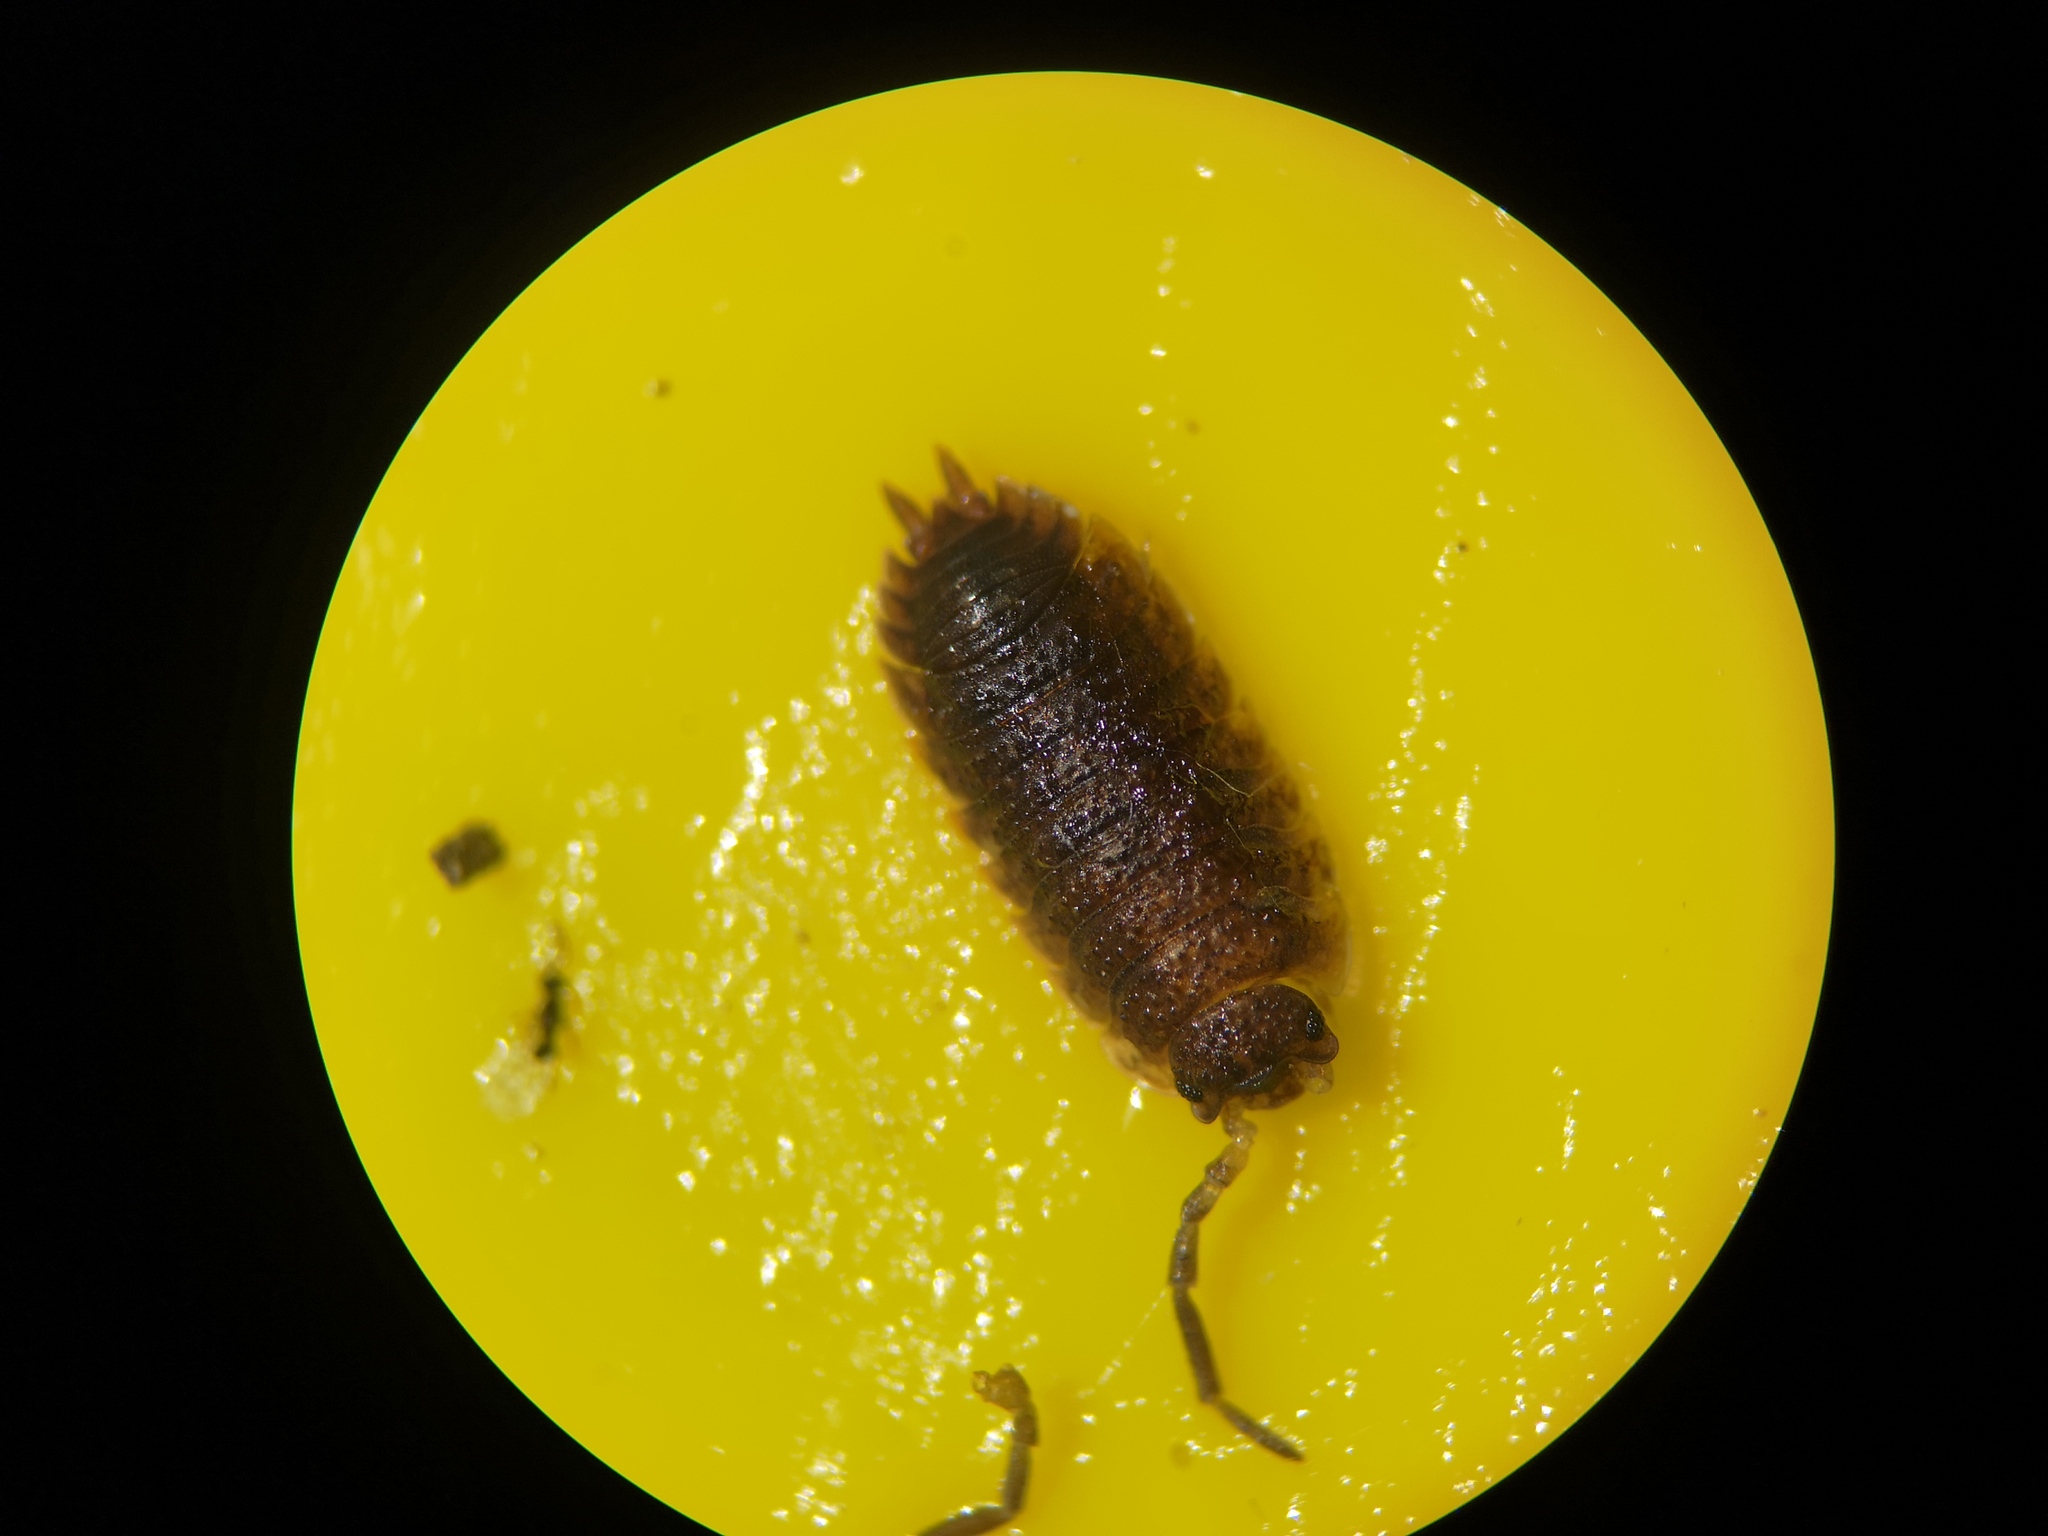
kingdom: Animalia
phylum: Arthropoda
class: Malacostraca
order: Isopoda
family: Porcellionidae
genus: Porcellio
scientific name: Porcellio scaber
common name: Common rough woodlouse
